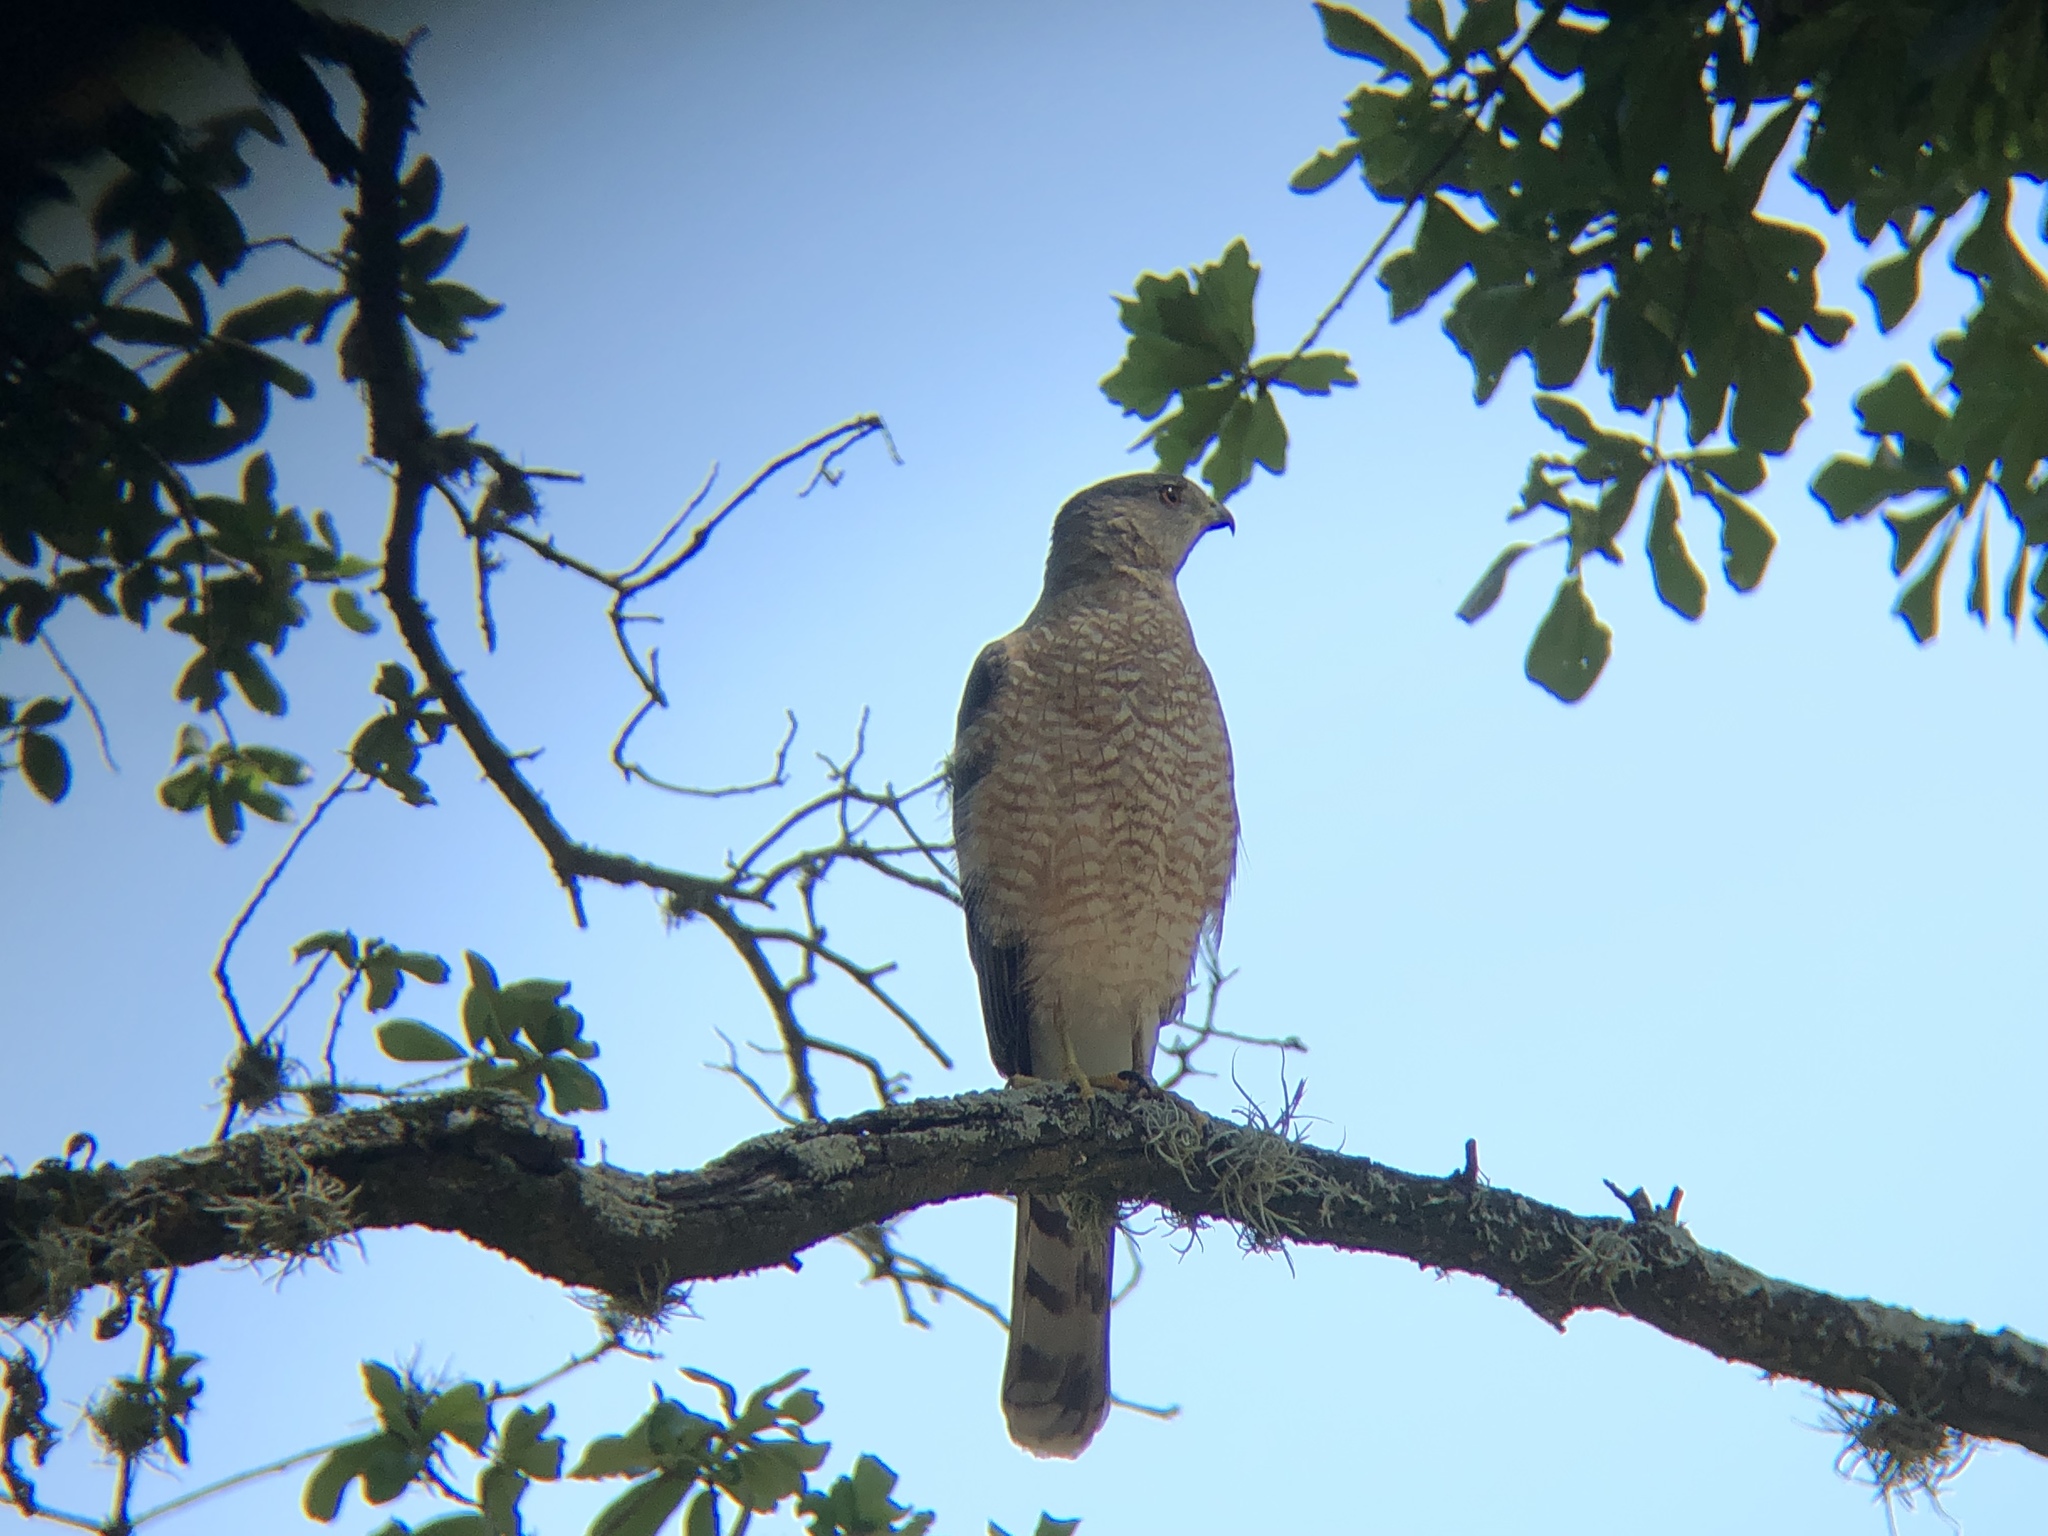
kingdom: Animalia
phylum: Chordata
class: Aves
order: Accipitriformes
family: Accipitridae
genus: Accipiter
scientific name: Accipiter cooperii
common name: Cooper's hawk
